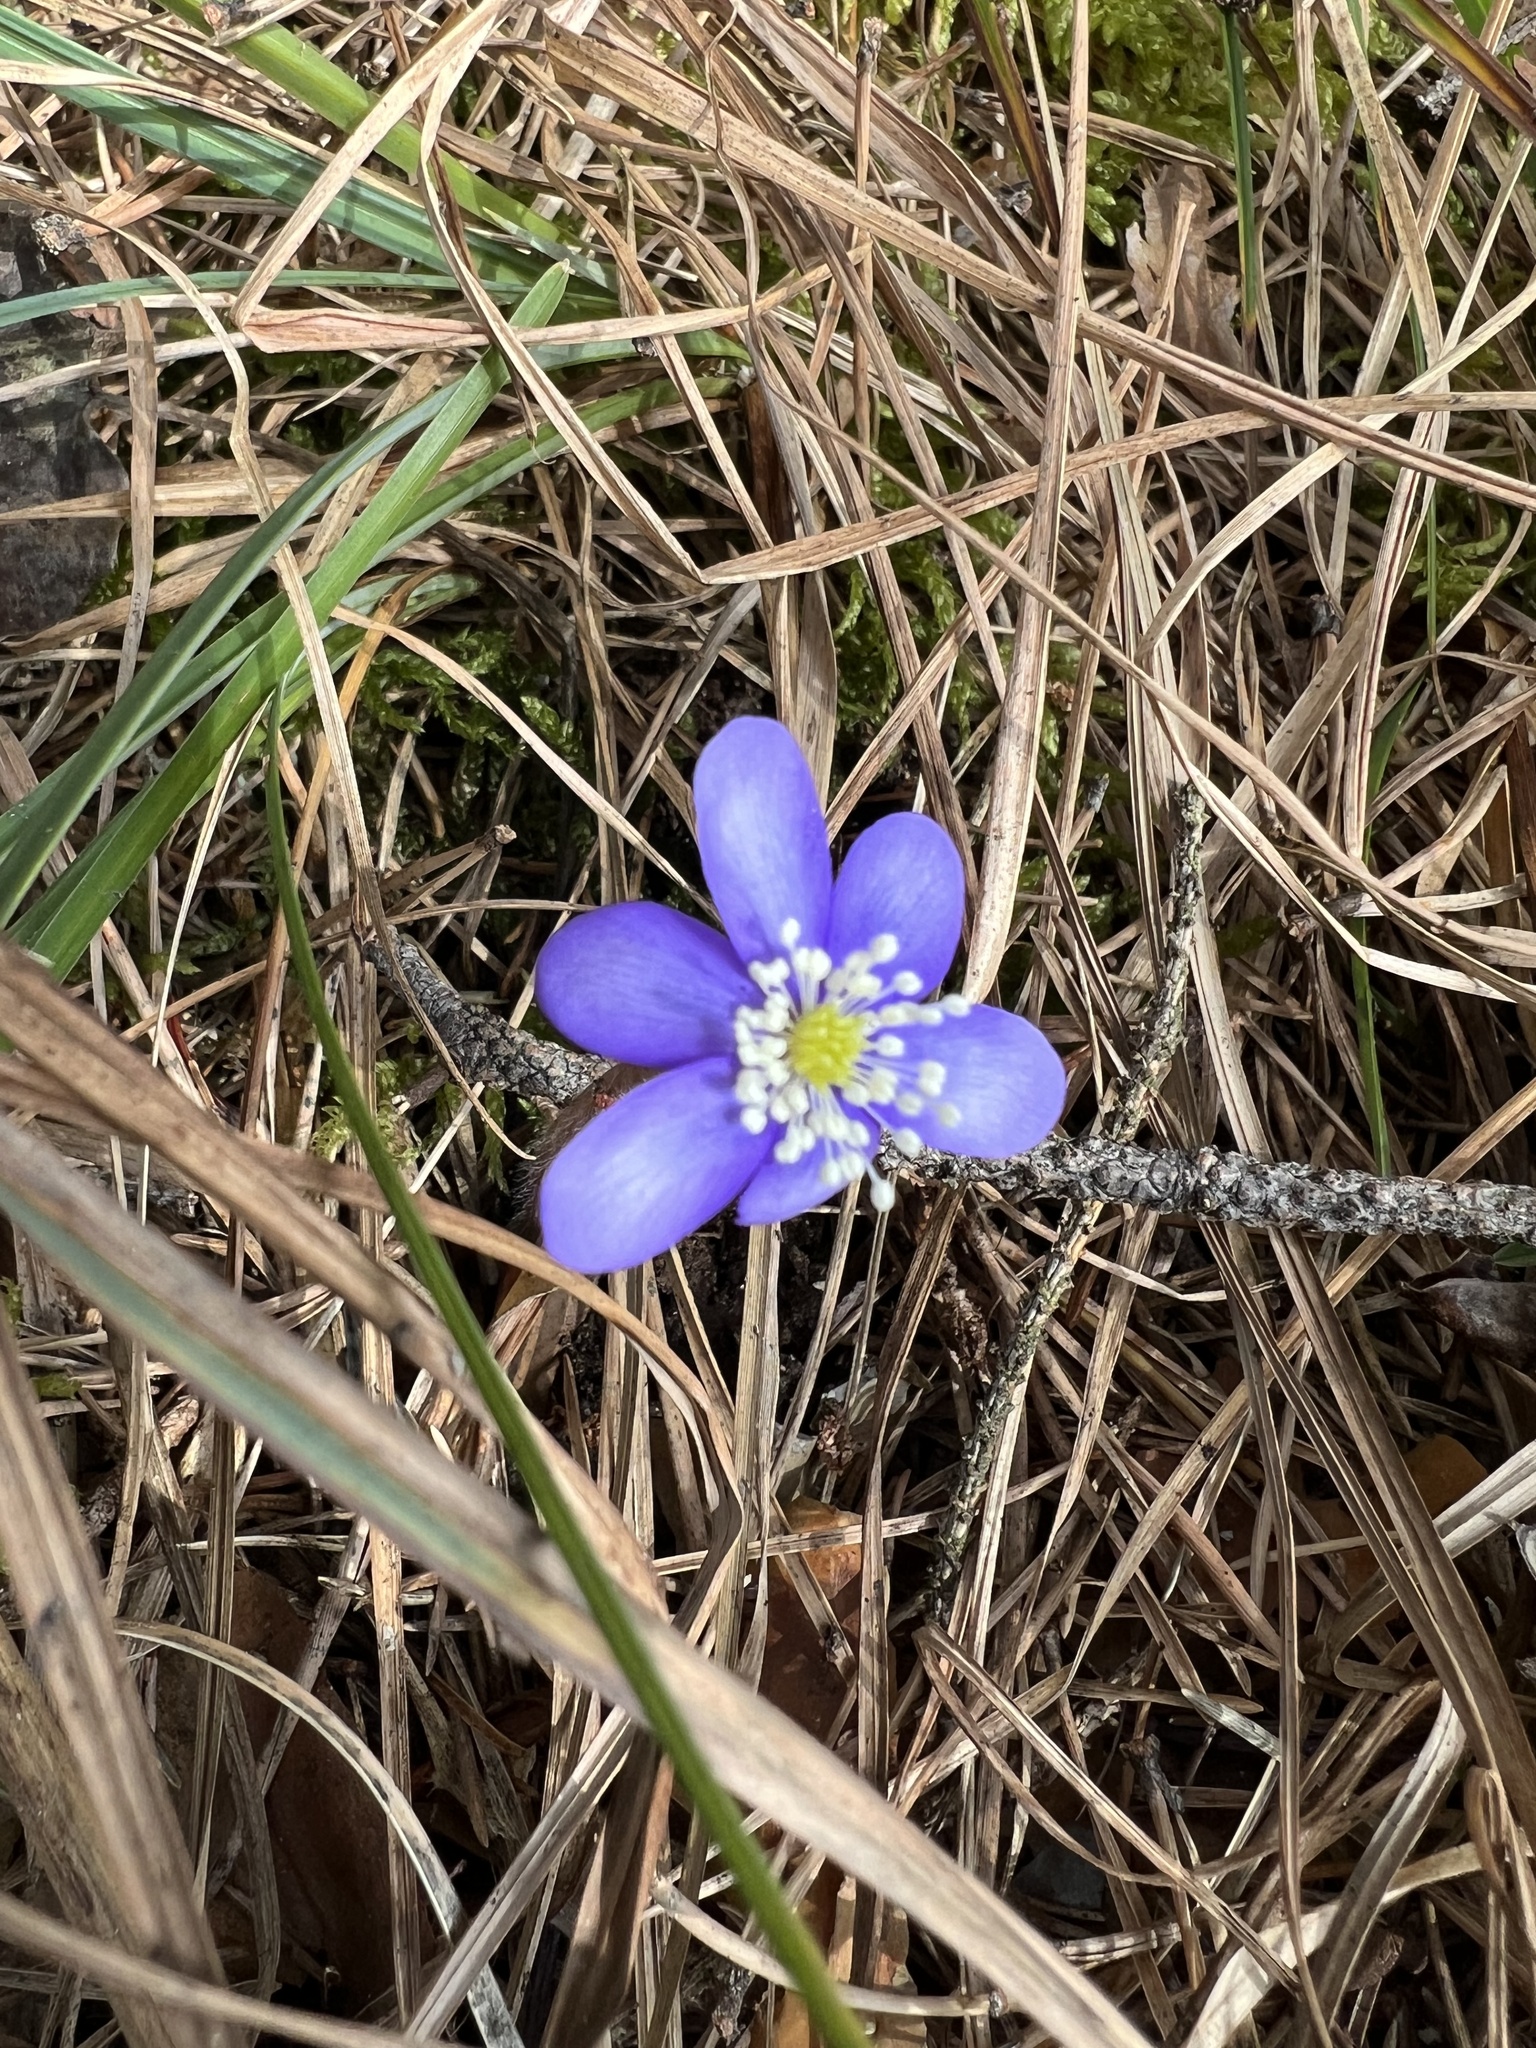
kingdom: Plantae
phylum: Tracheophyta
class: Magnoliopsida
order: Ranunculales
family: Ranunculaceae
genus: Hepatica
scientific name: Hepatica nobilis
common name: Liverleaf
